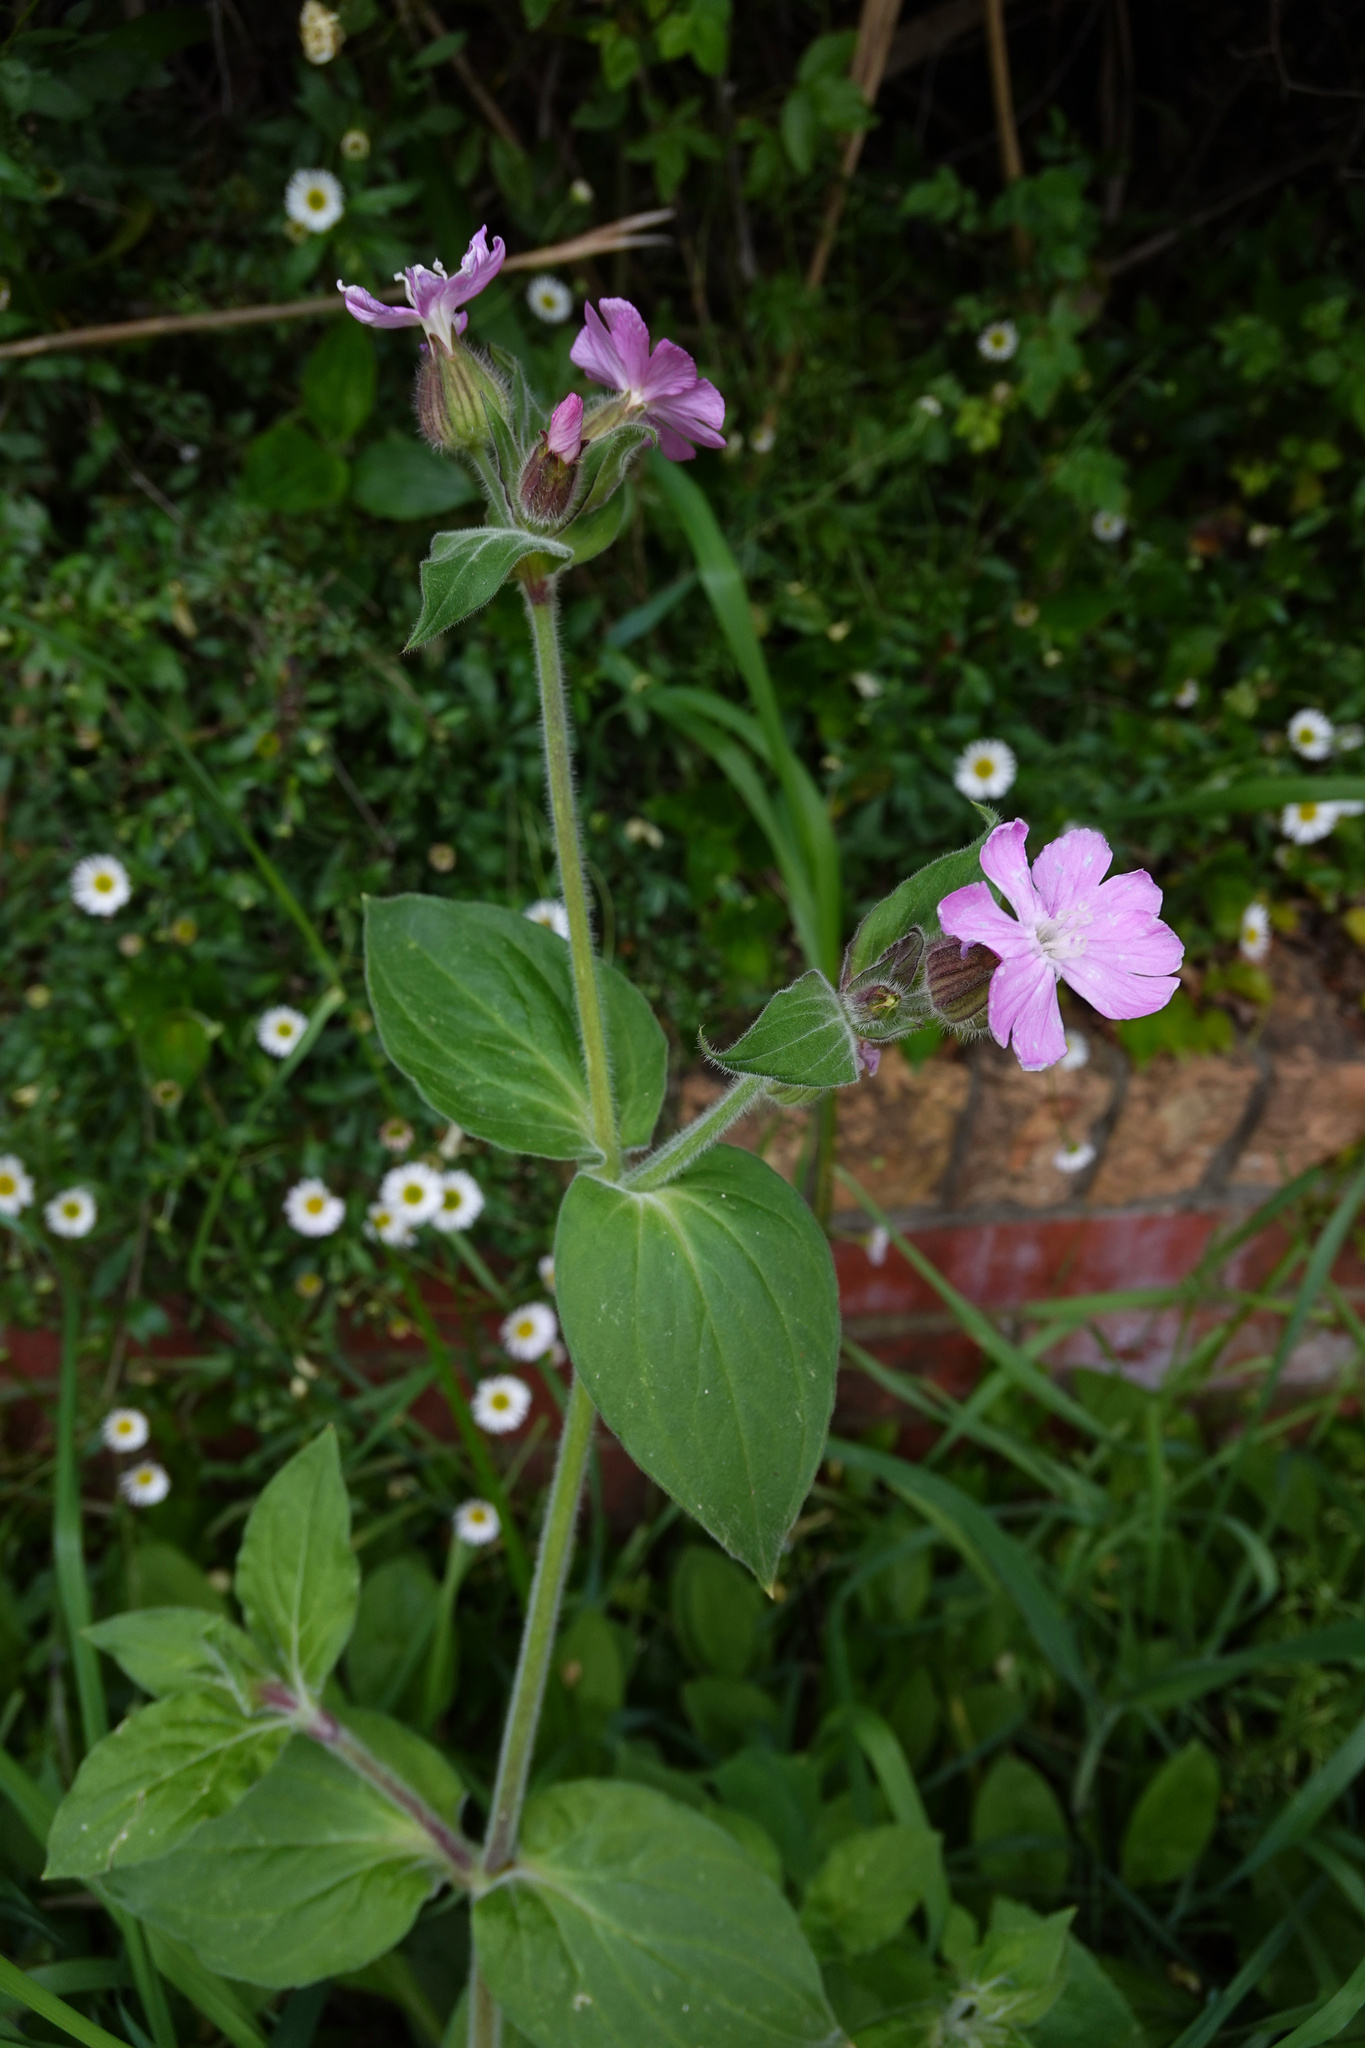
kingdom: Plantae
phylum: Tracheophyta
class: Magnoliopsida
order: Caryophyllales
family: Caryophyllaceae
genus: Silene
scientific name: Silene dioica
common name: Red campion
